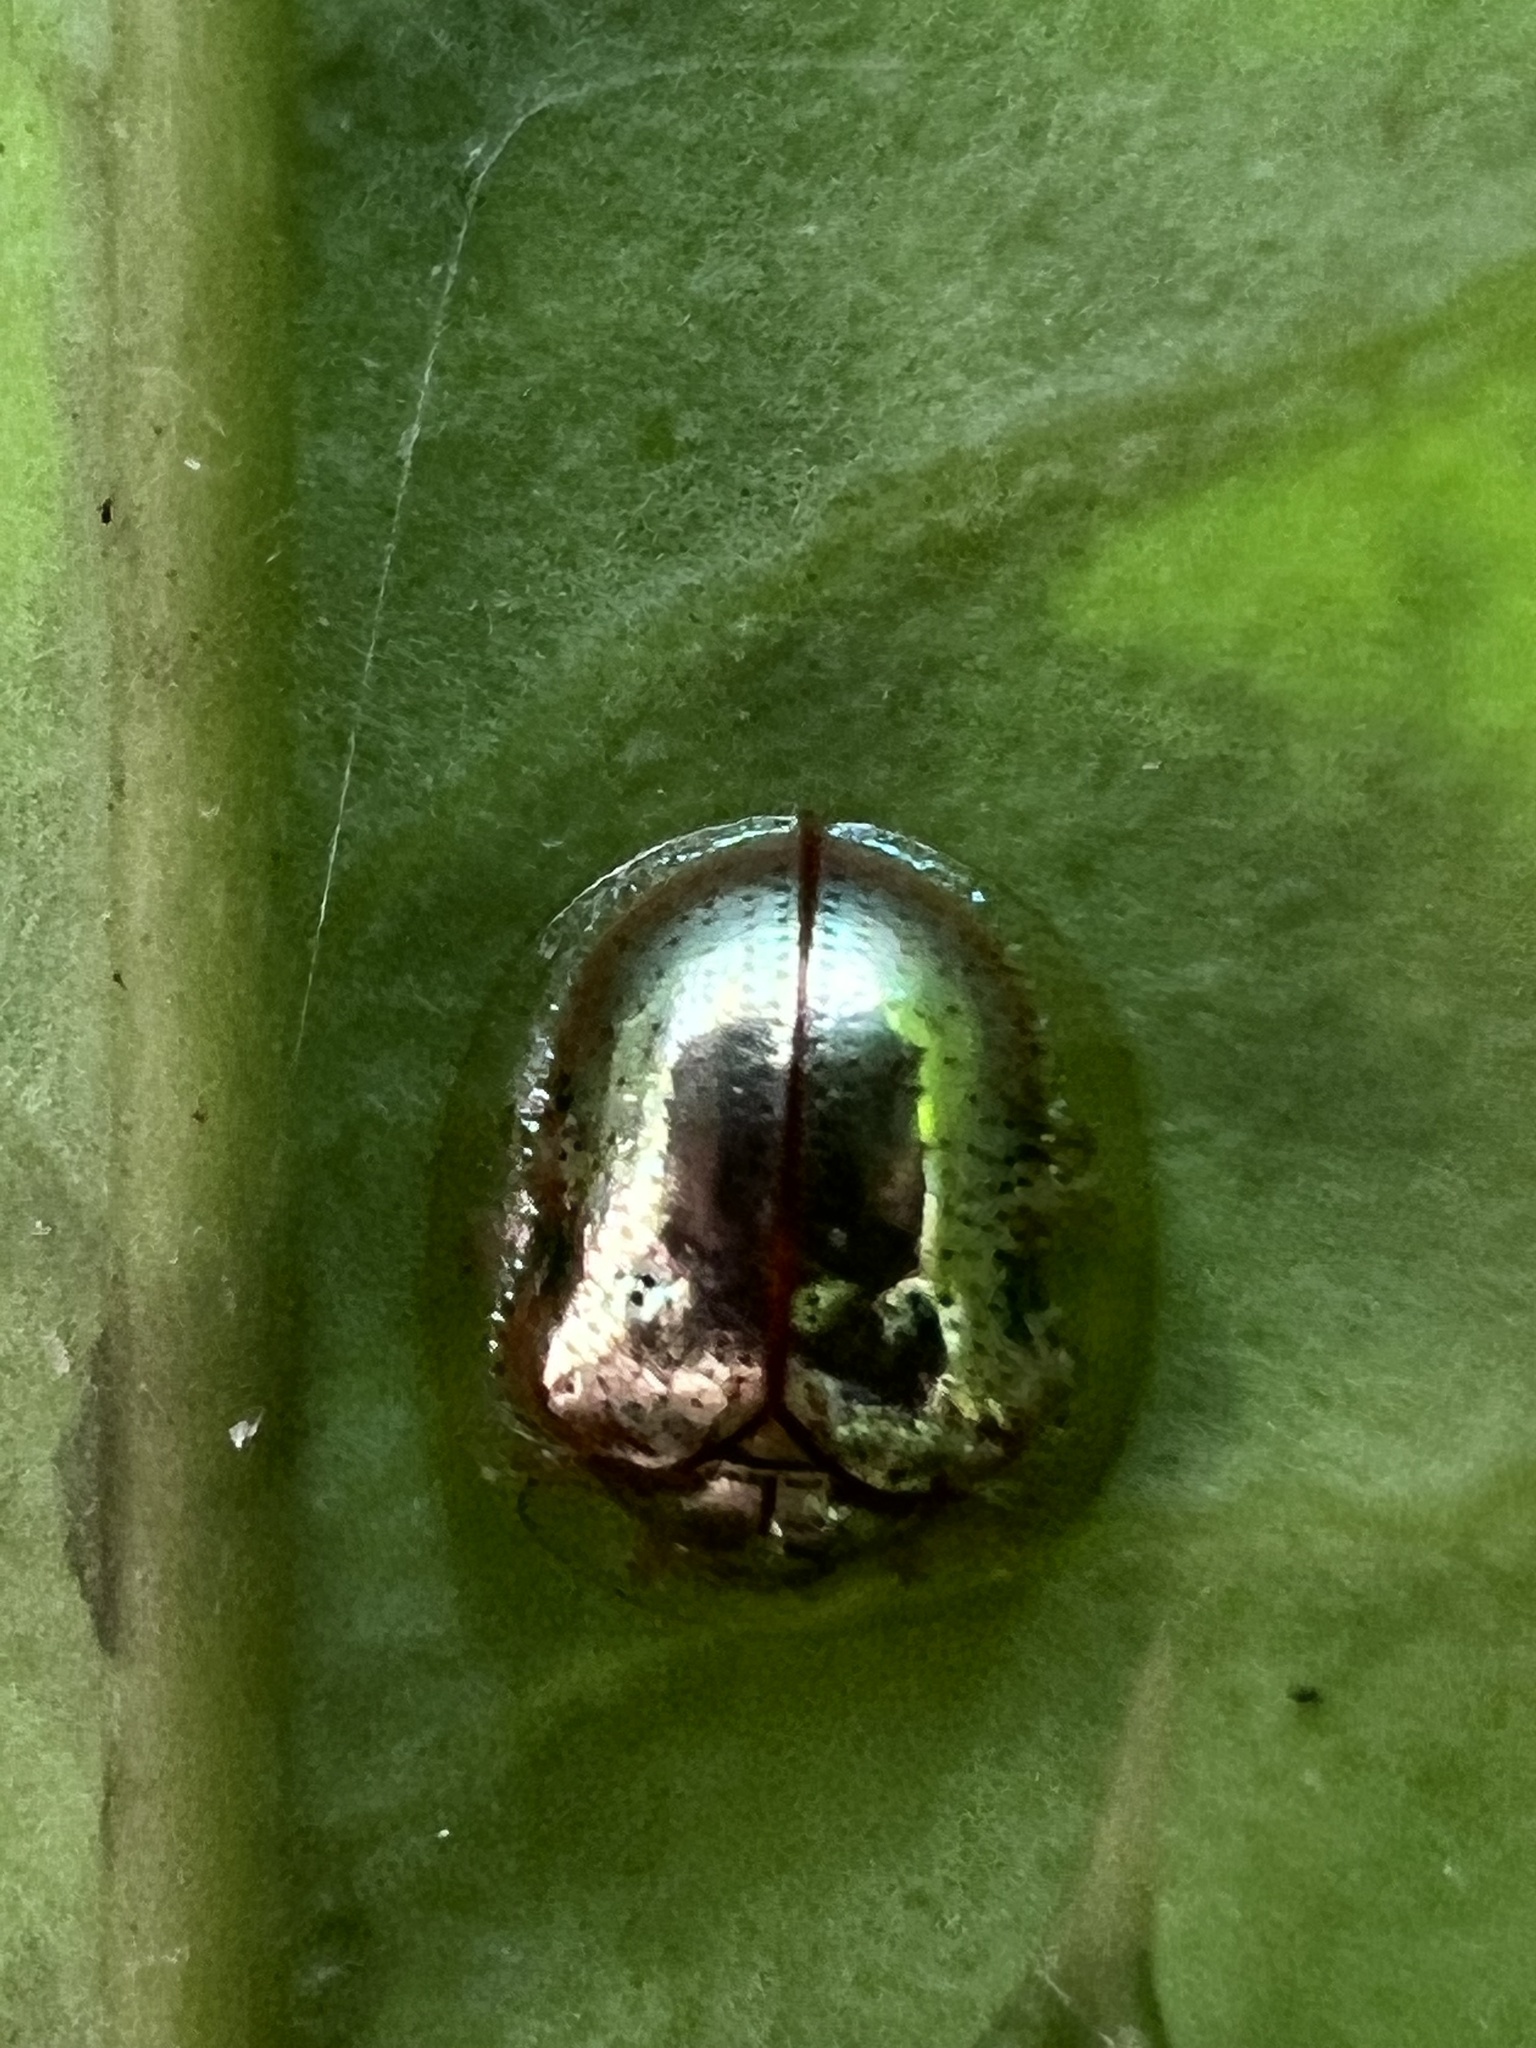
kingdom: Animalia
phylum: Arthropoda
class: Insecta
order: Coleoptera
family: Chrysomelidae
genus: Charidotella
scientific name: Charidotella sexpunctata
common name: Golden tortoise beetle
